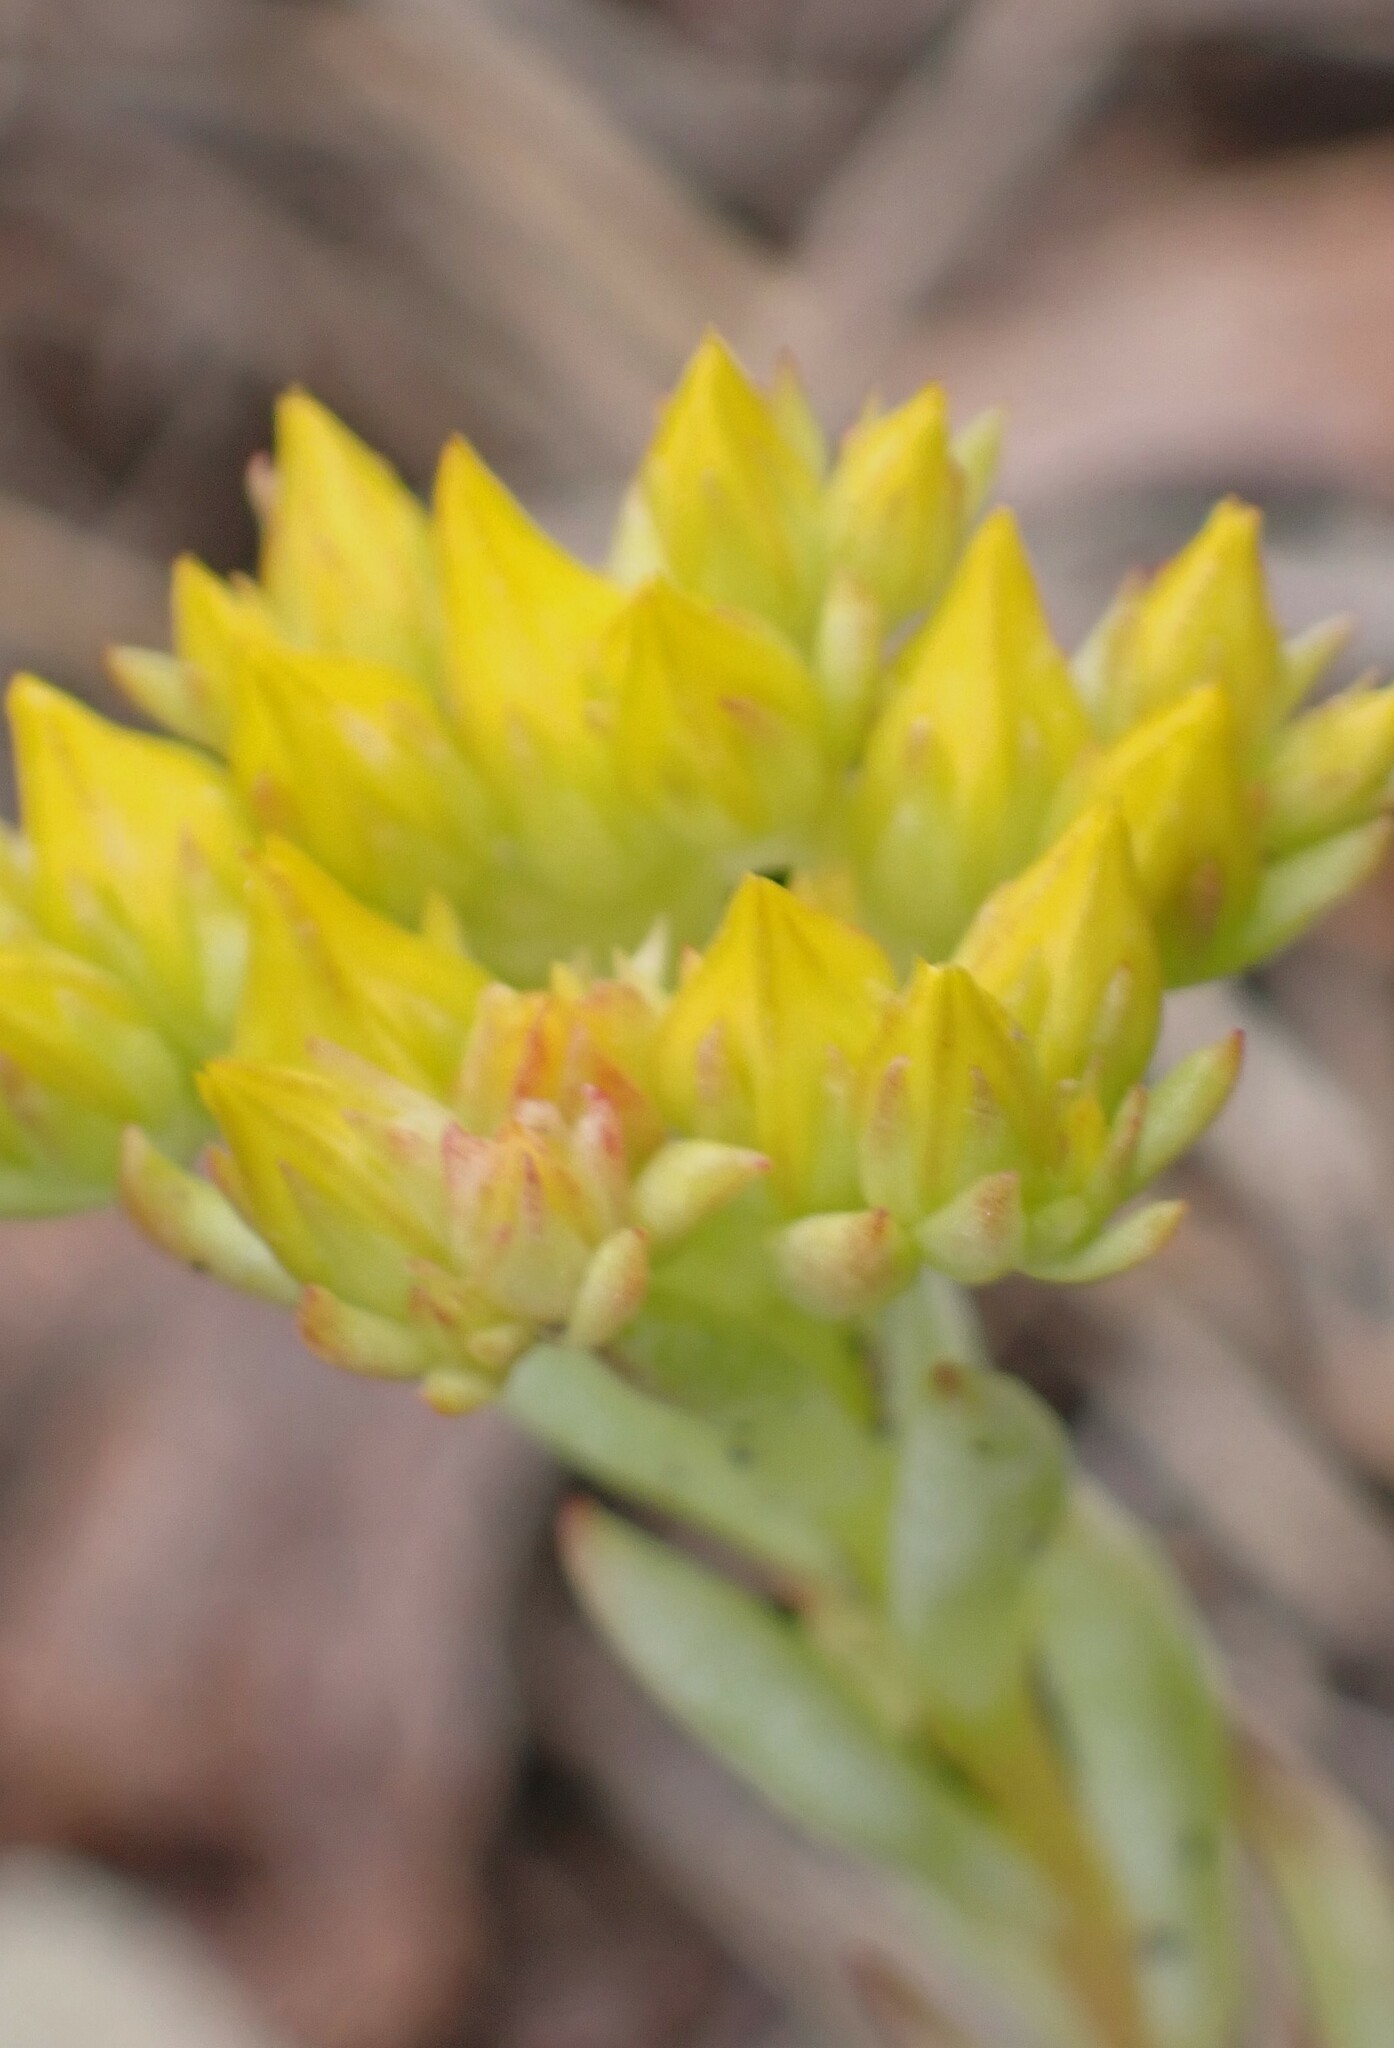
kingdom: Plantae
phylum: Tracheophyta
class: Magnoliopsida
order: Saxifragales
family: Crassulaceae
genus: Sedum
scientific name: Sedum lanceolatum
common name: Common stonecrop
